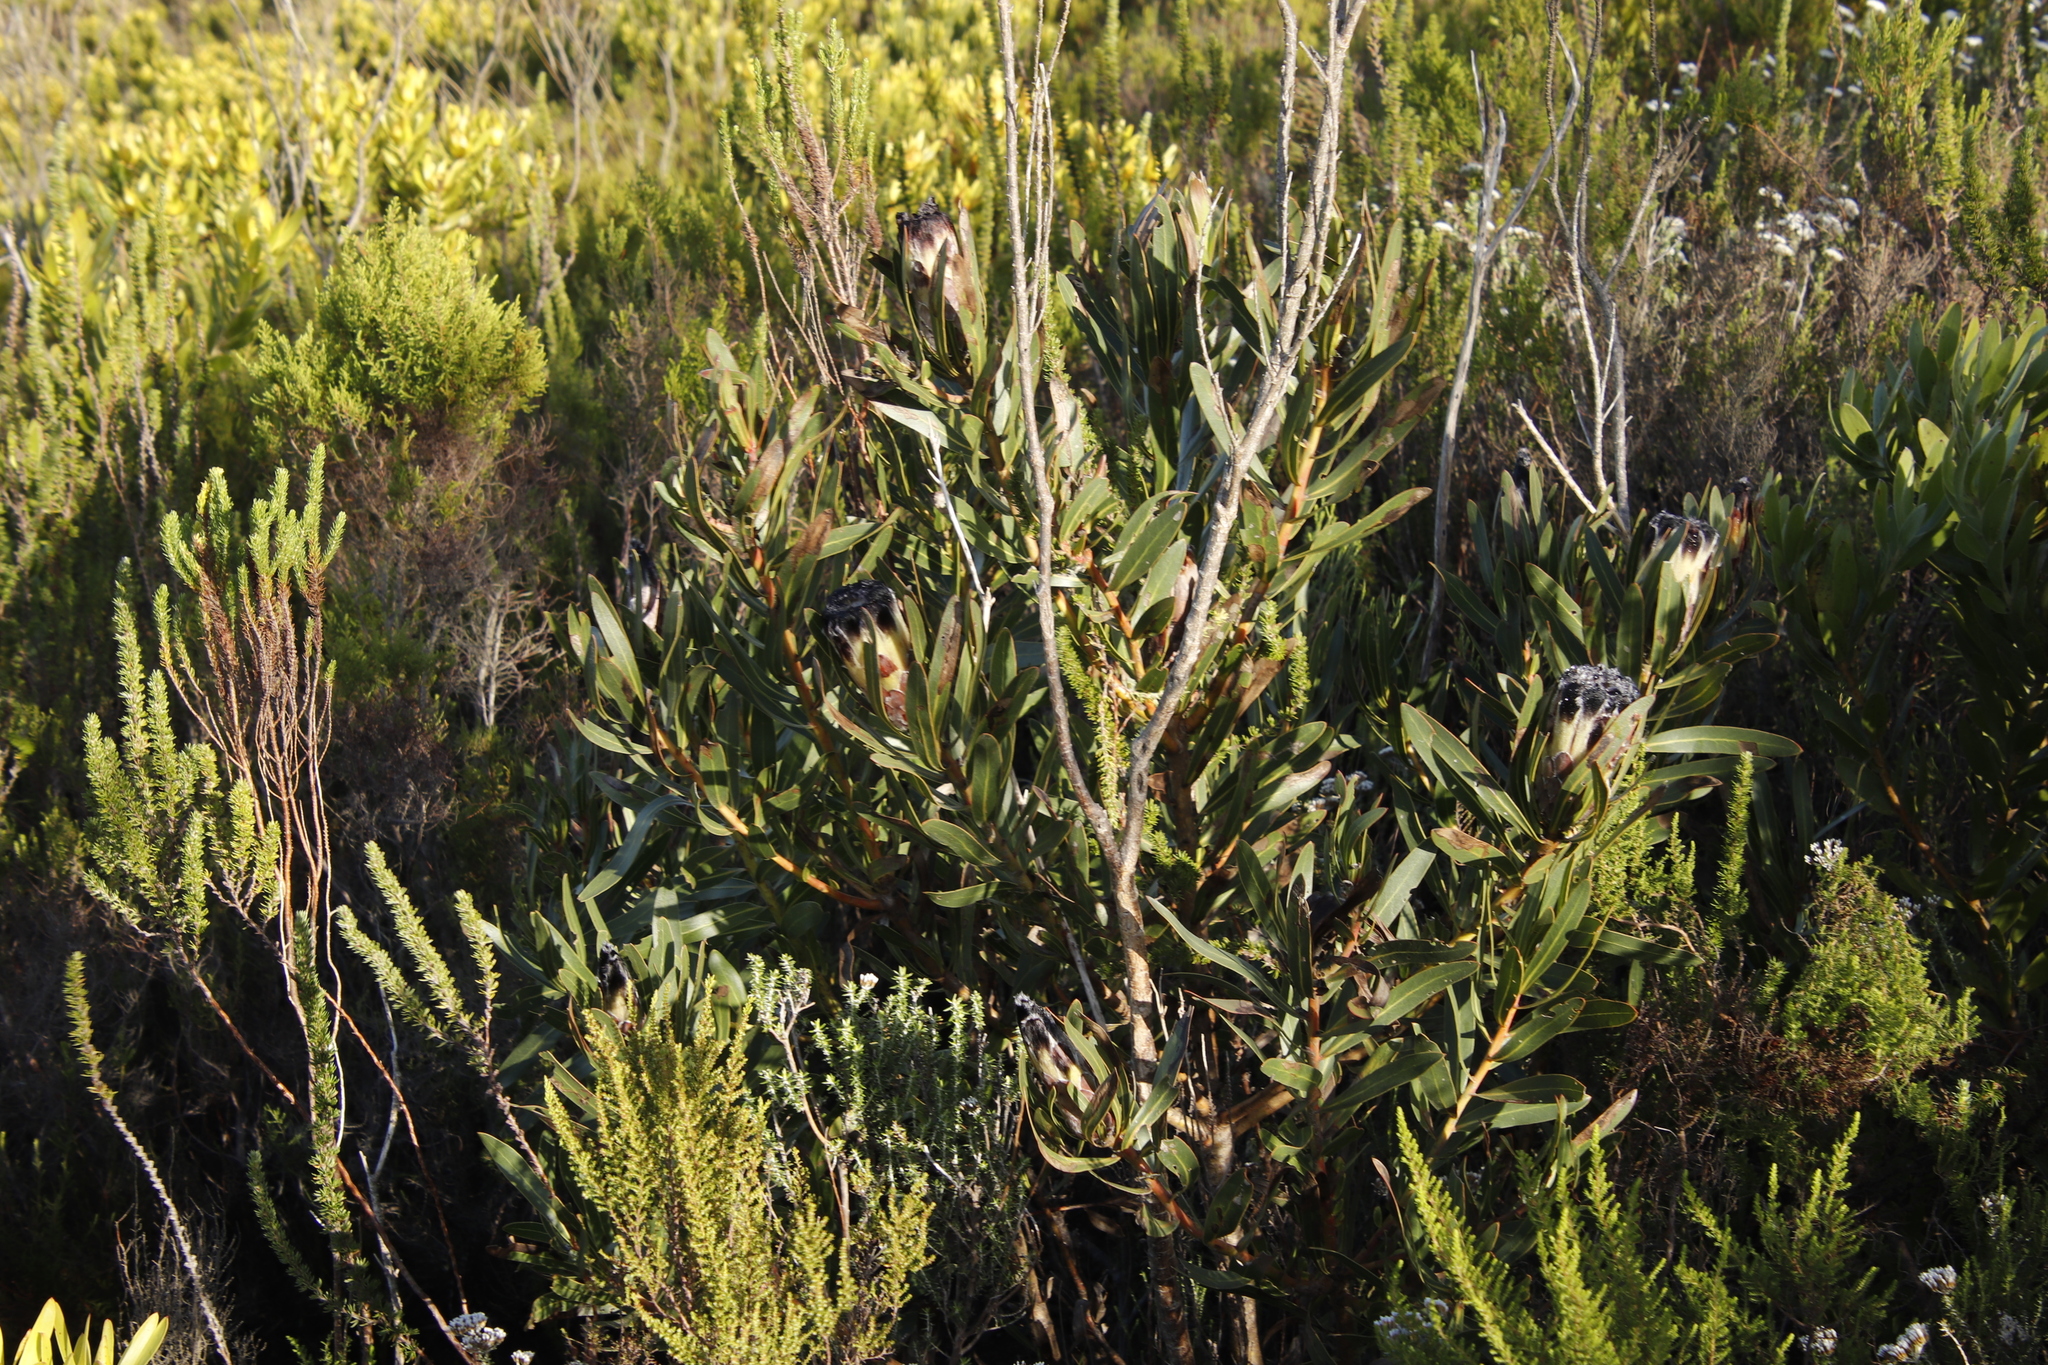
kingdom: Plantae
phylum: Tracheophyta
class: Magnoliopsida
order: Proteales
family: Proteaceae
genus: Protea
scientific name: Protea lepidocarpodendron
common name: Black-bearded protea
